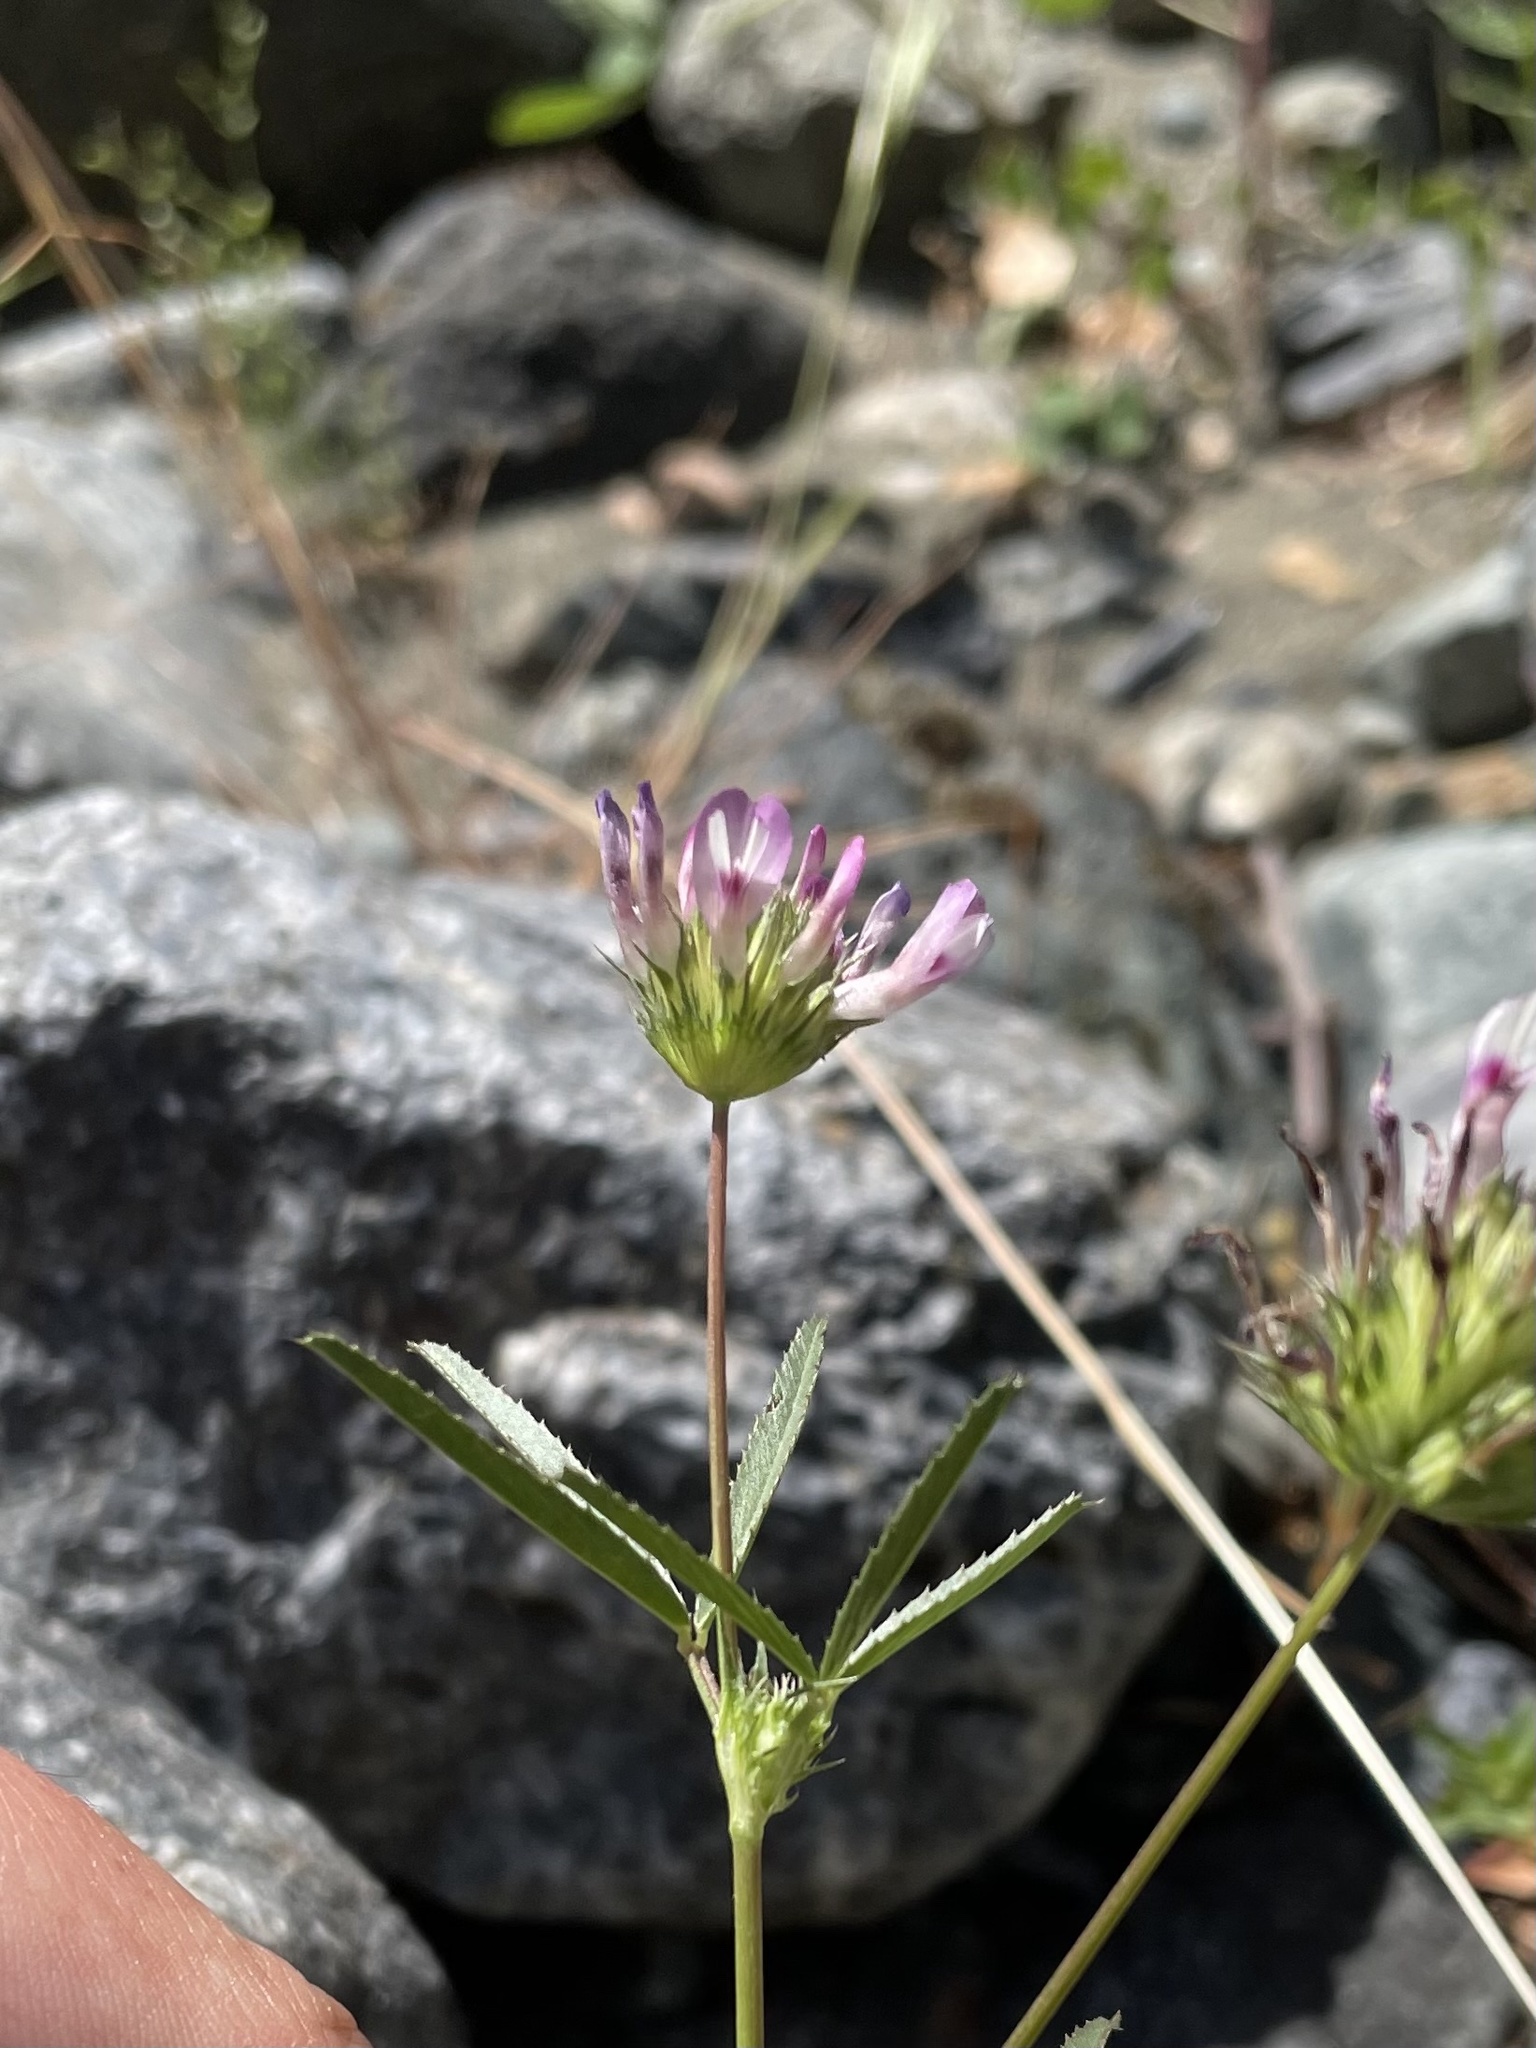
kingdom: Plantae
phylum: Tracheophyta
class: Magnoliopsida
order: Fabales
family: Fabaceae
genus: Trifolium
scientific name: Trifolium willdenovii
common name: Tomcat clover
